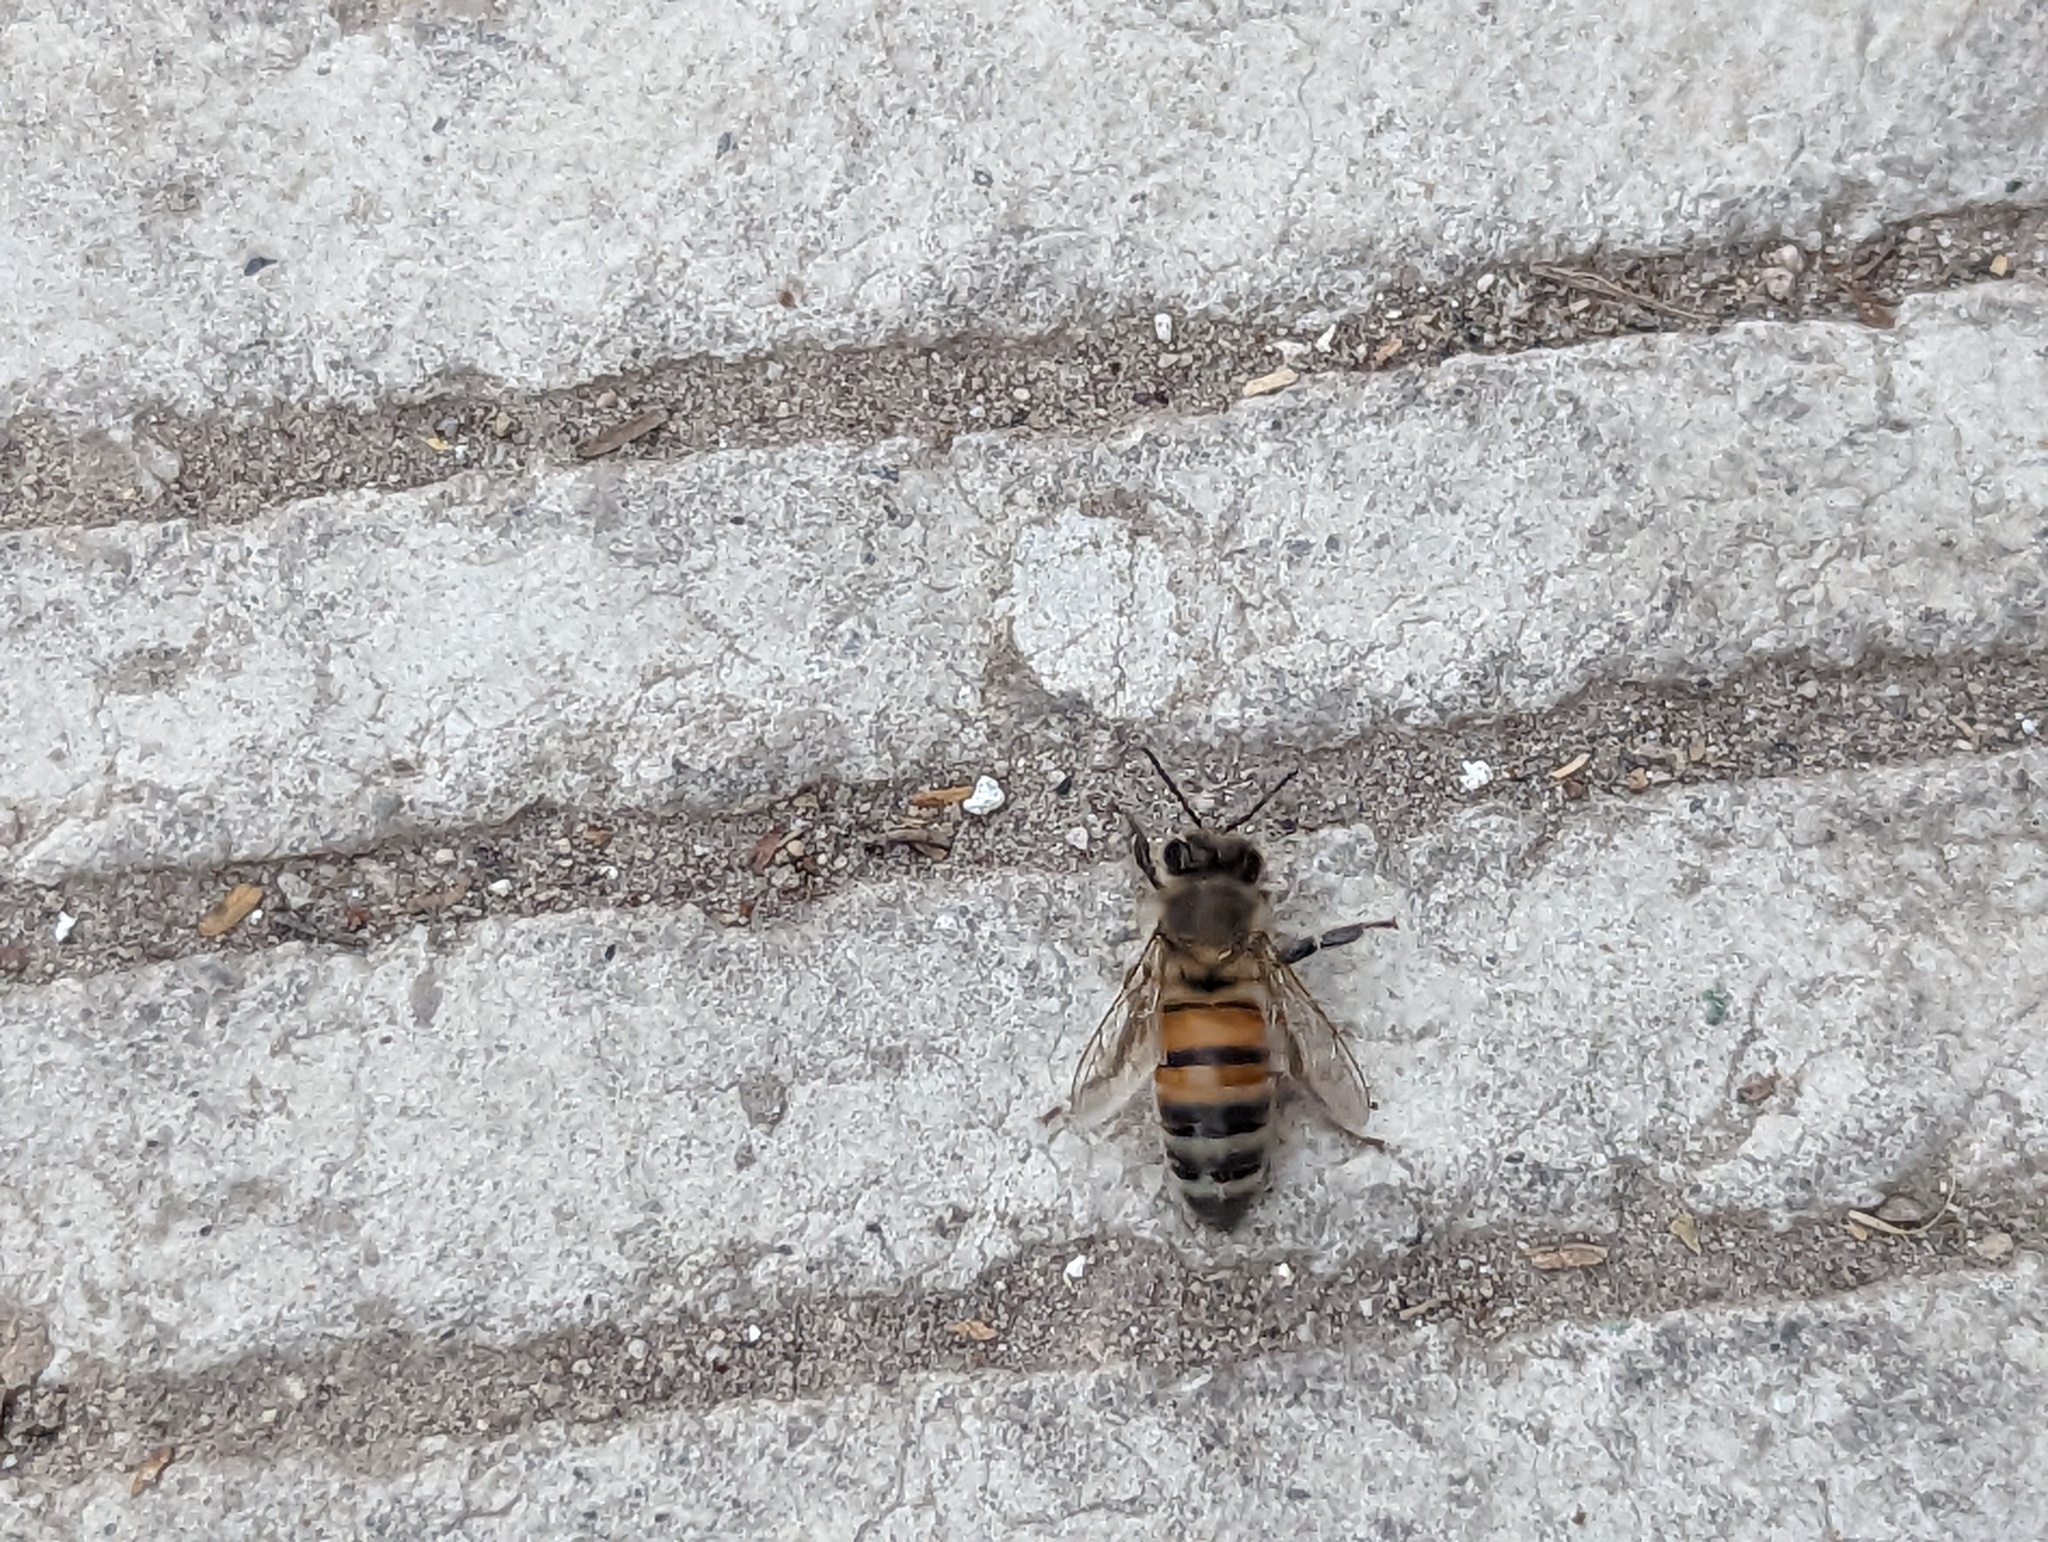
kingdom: Animalia
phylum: Arthropoda
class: Insecta
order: Hymenoptera
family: Apidae
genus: Apis
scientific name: Apis mellifera
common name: Honey bee
